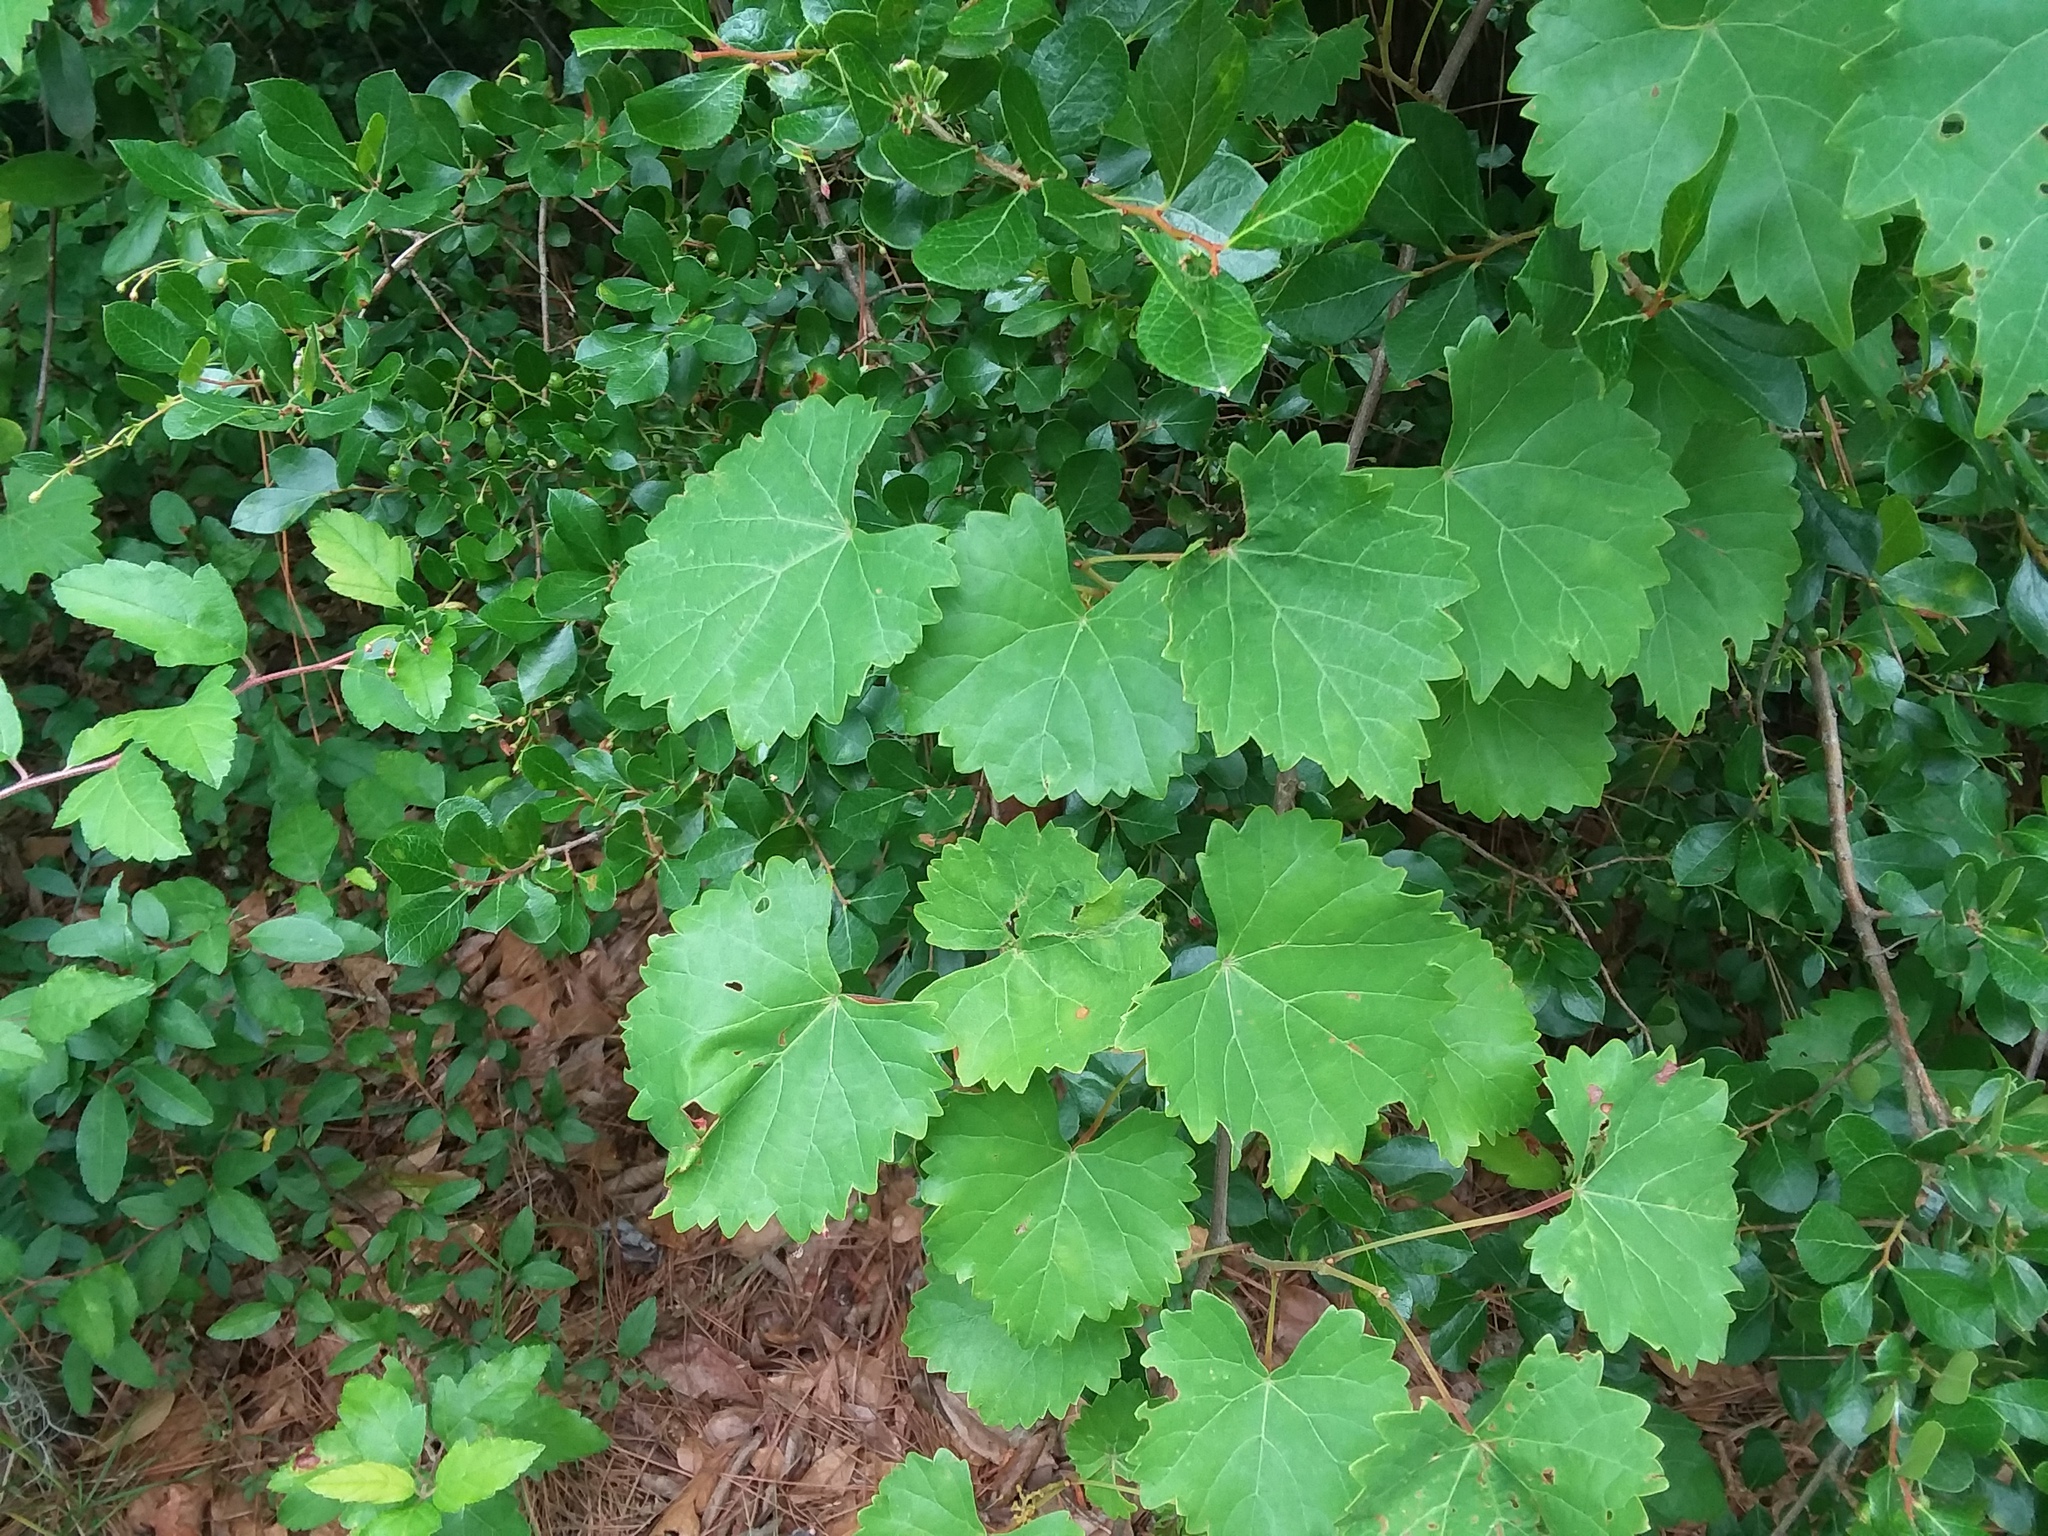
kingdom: Plantae
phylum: Tracheophyta
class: Magnoliopsida
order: Vitales
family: Vitaceae
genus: Vitis
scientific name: Vitis rotundifolia
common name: Muscadine grape
